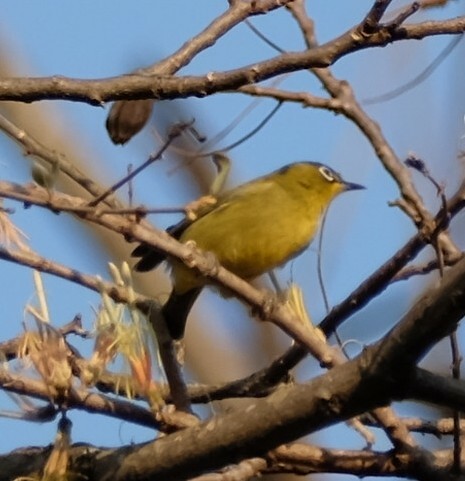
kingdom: Animalia
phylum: Chordata
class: Aves
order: Passeriformes
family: Zosteropidae
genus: Zosterops
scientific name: Zosterops virens
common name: Cape white-eye
